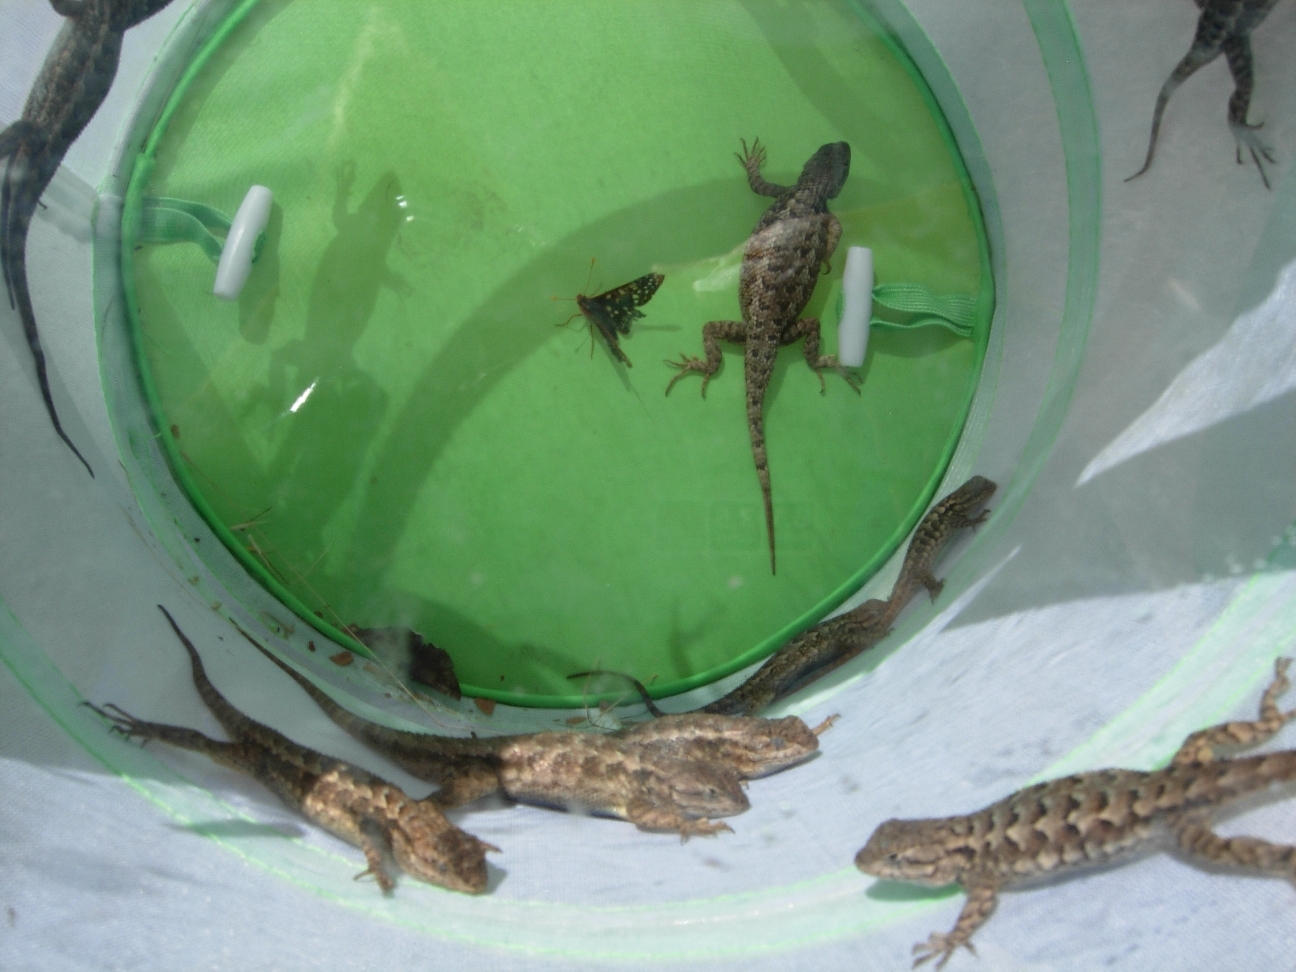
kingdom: Animalia
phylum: Chordata
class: Squamata
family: Phrynosomatidae
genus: Sceloporus
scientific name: Sceloporus occidentalis
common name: Western fence lizard
